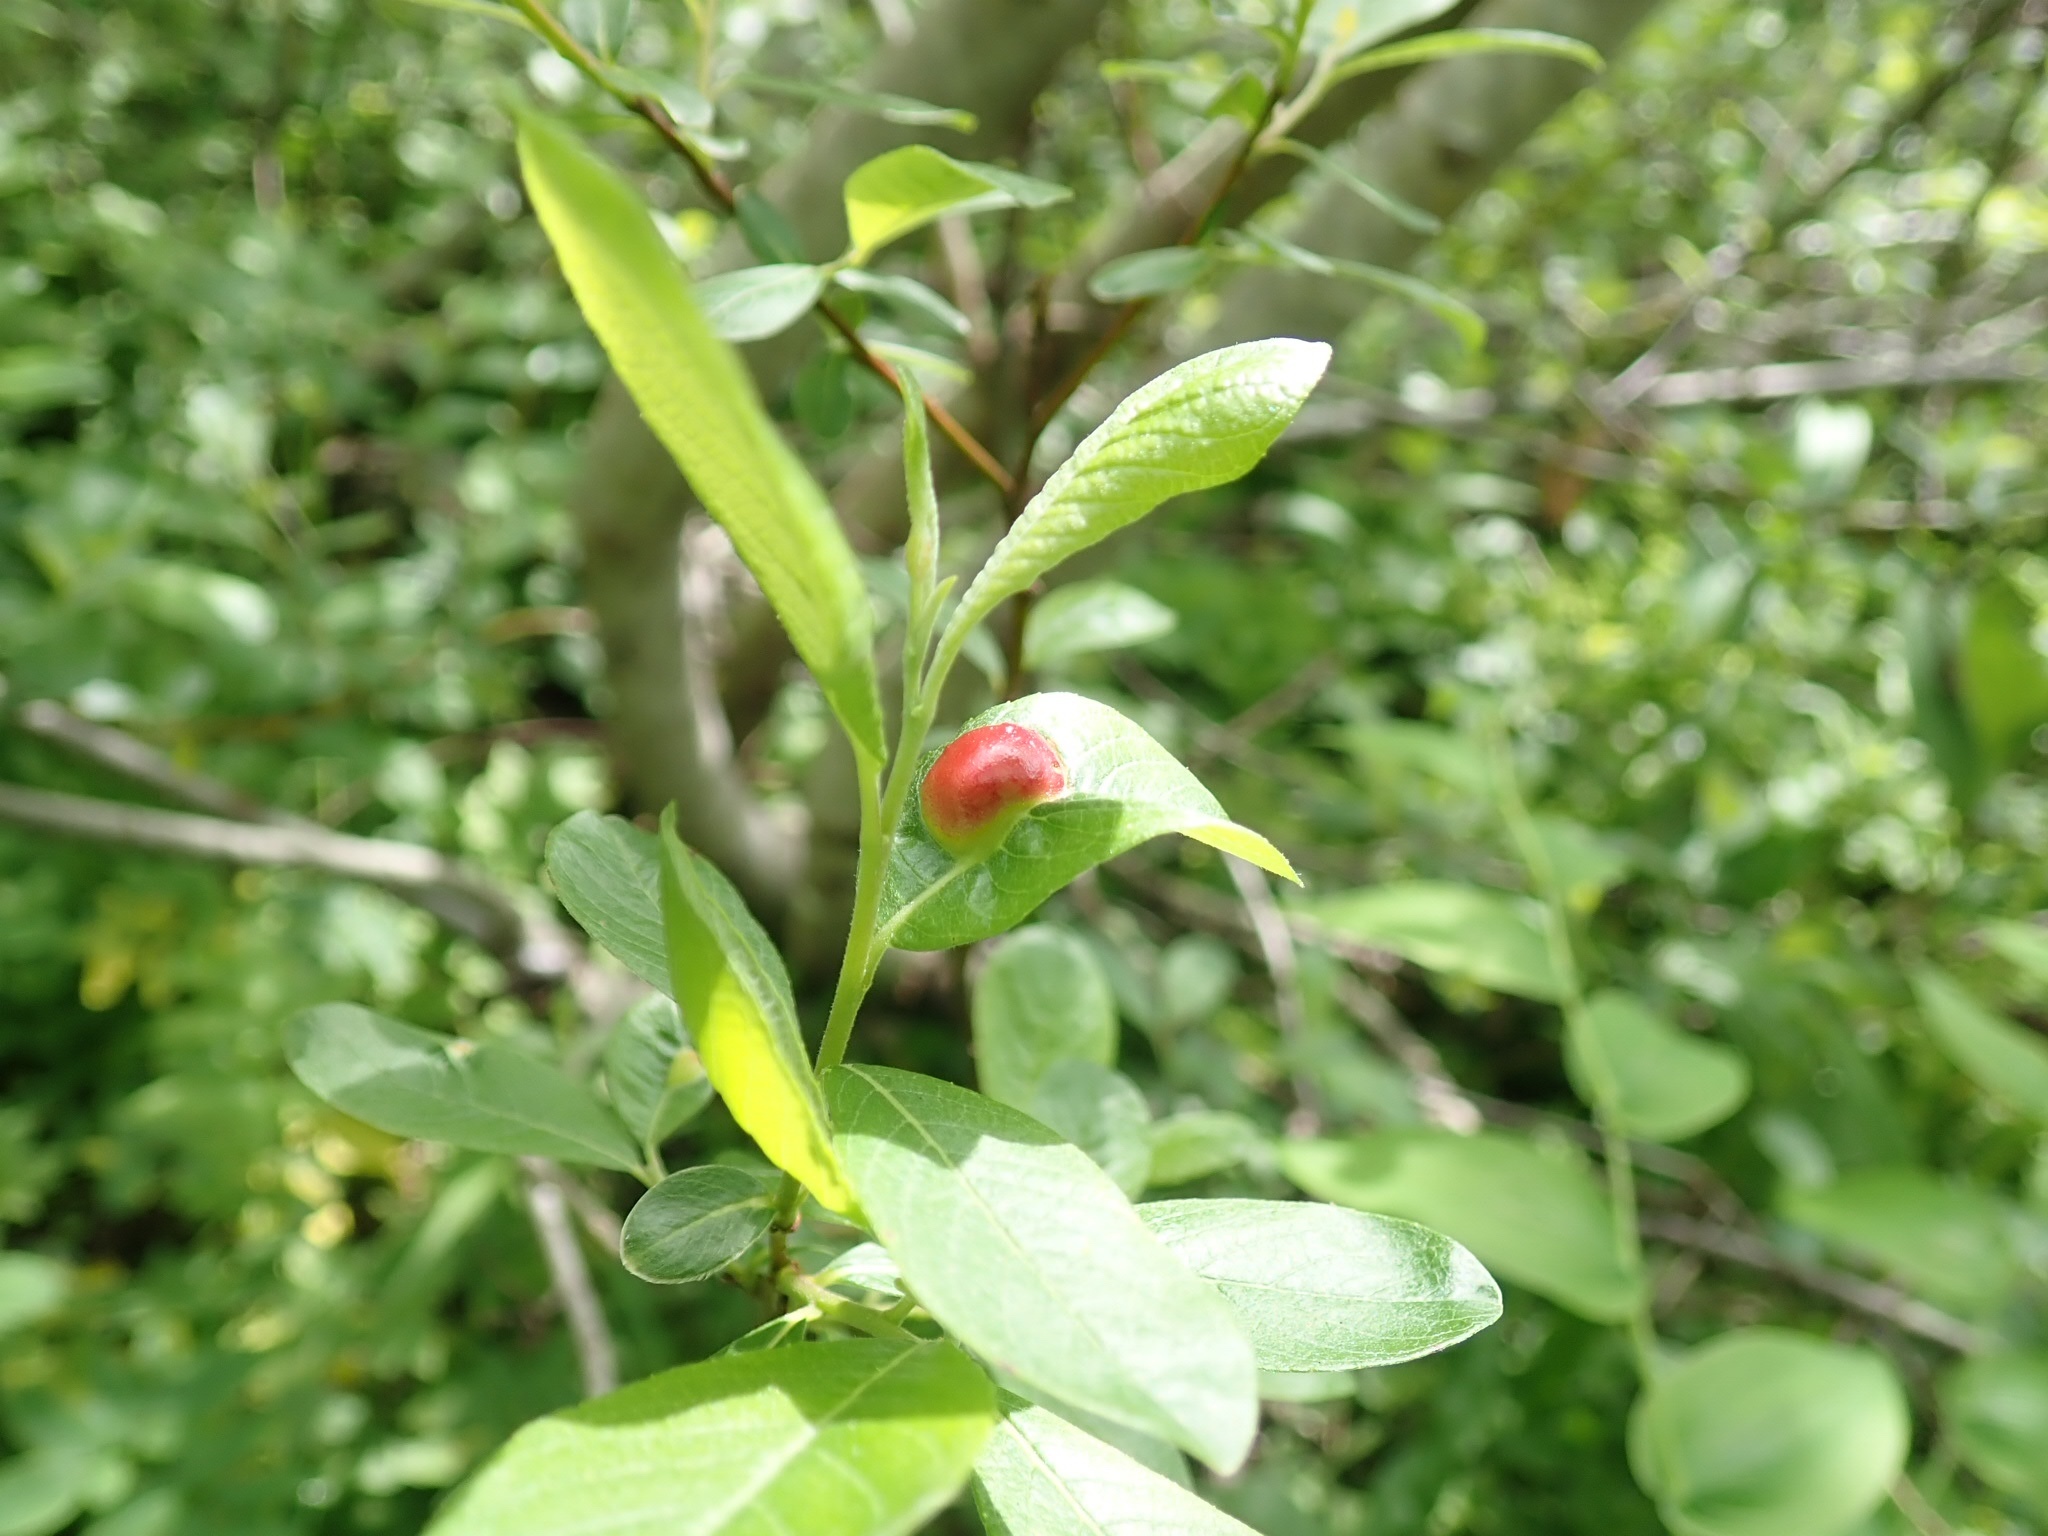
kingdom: Animalia
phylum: Arthropoda
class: Insecta
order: Hymenoptera
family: Tenthredinidae
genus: Euura
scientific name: Euura
